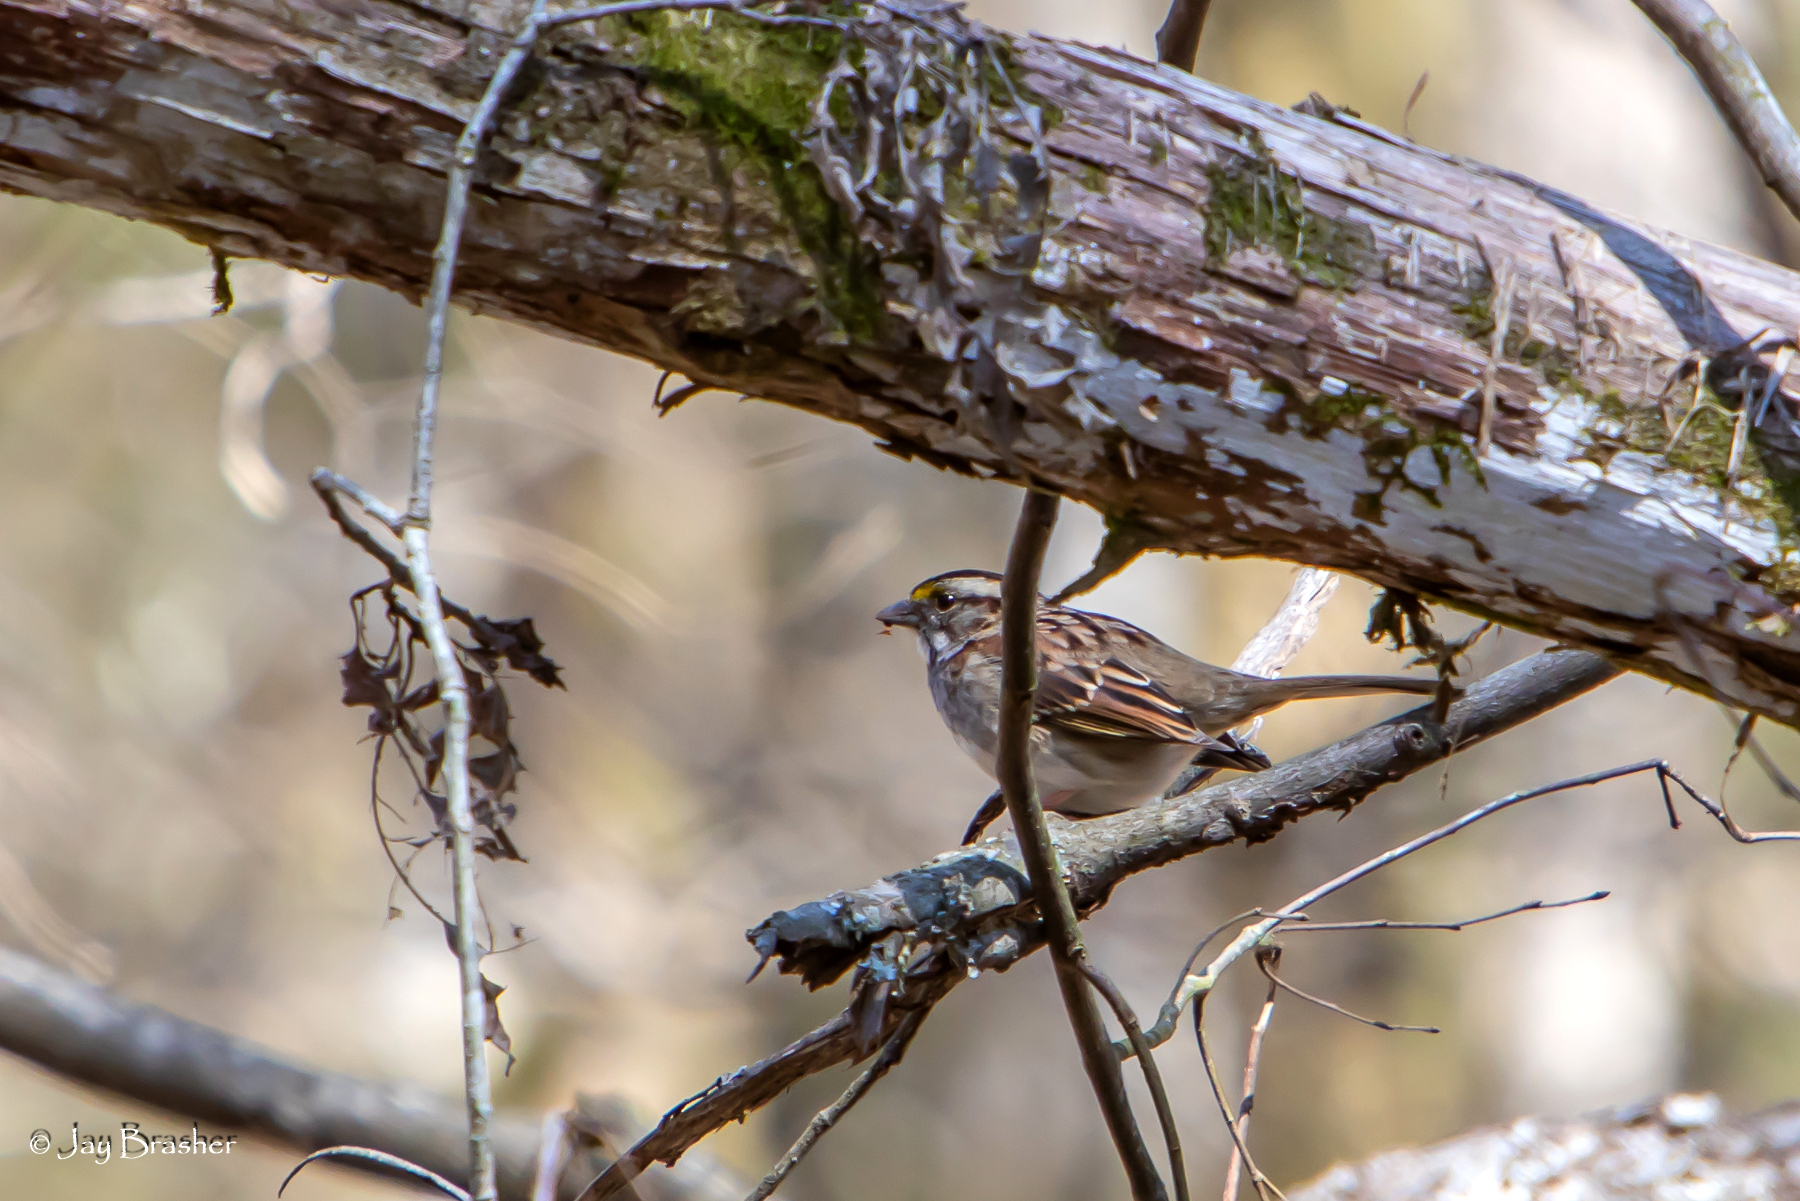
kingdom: Animalia
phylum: Chordata
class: Aves
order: Passeriformes
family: Passerellidae
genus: Zonotrichia
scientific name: Zonotrichia albicollis
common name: White-throated sparrow
